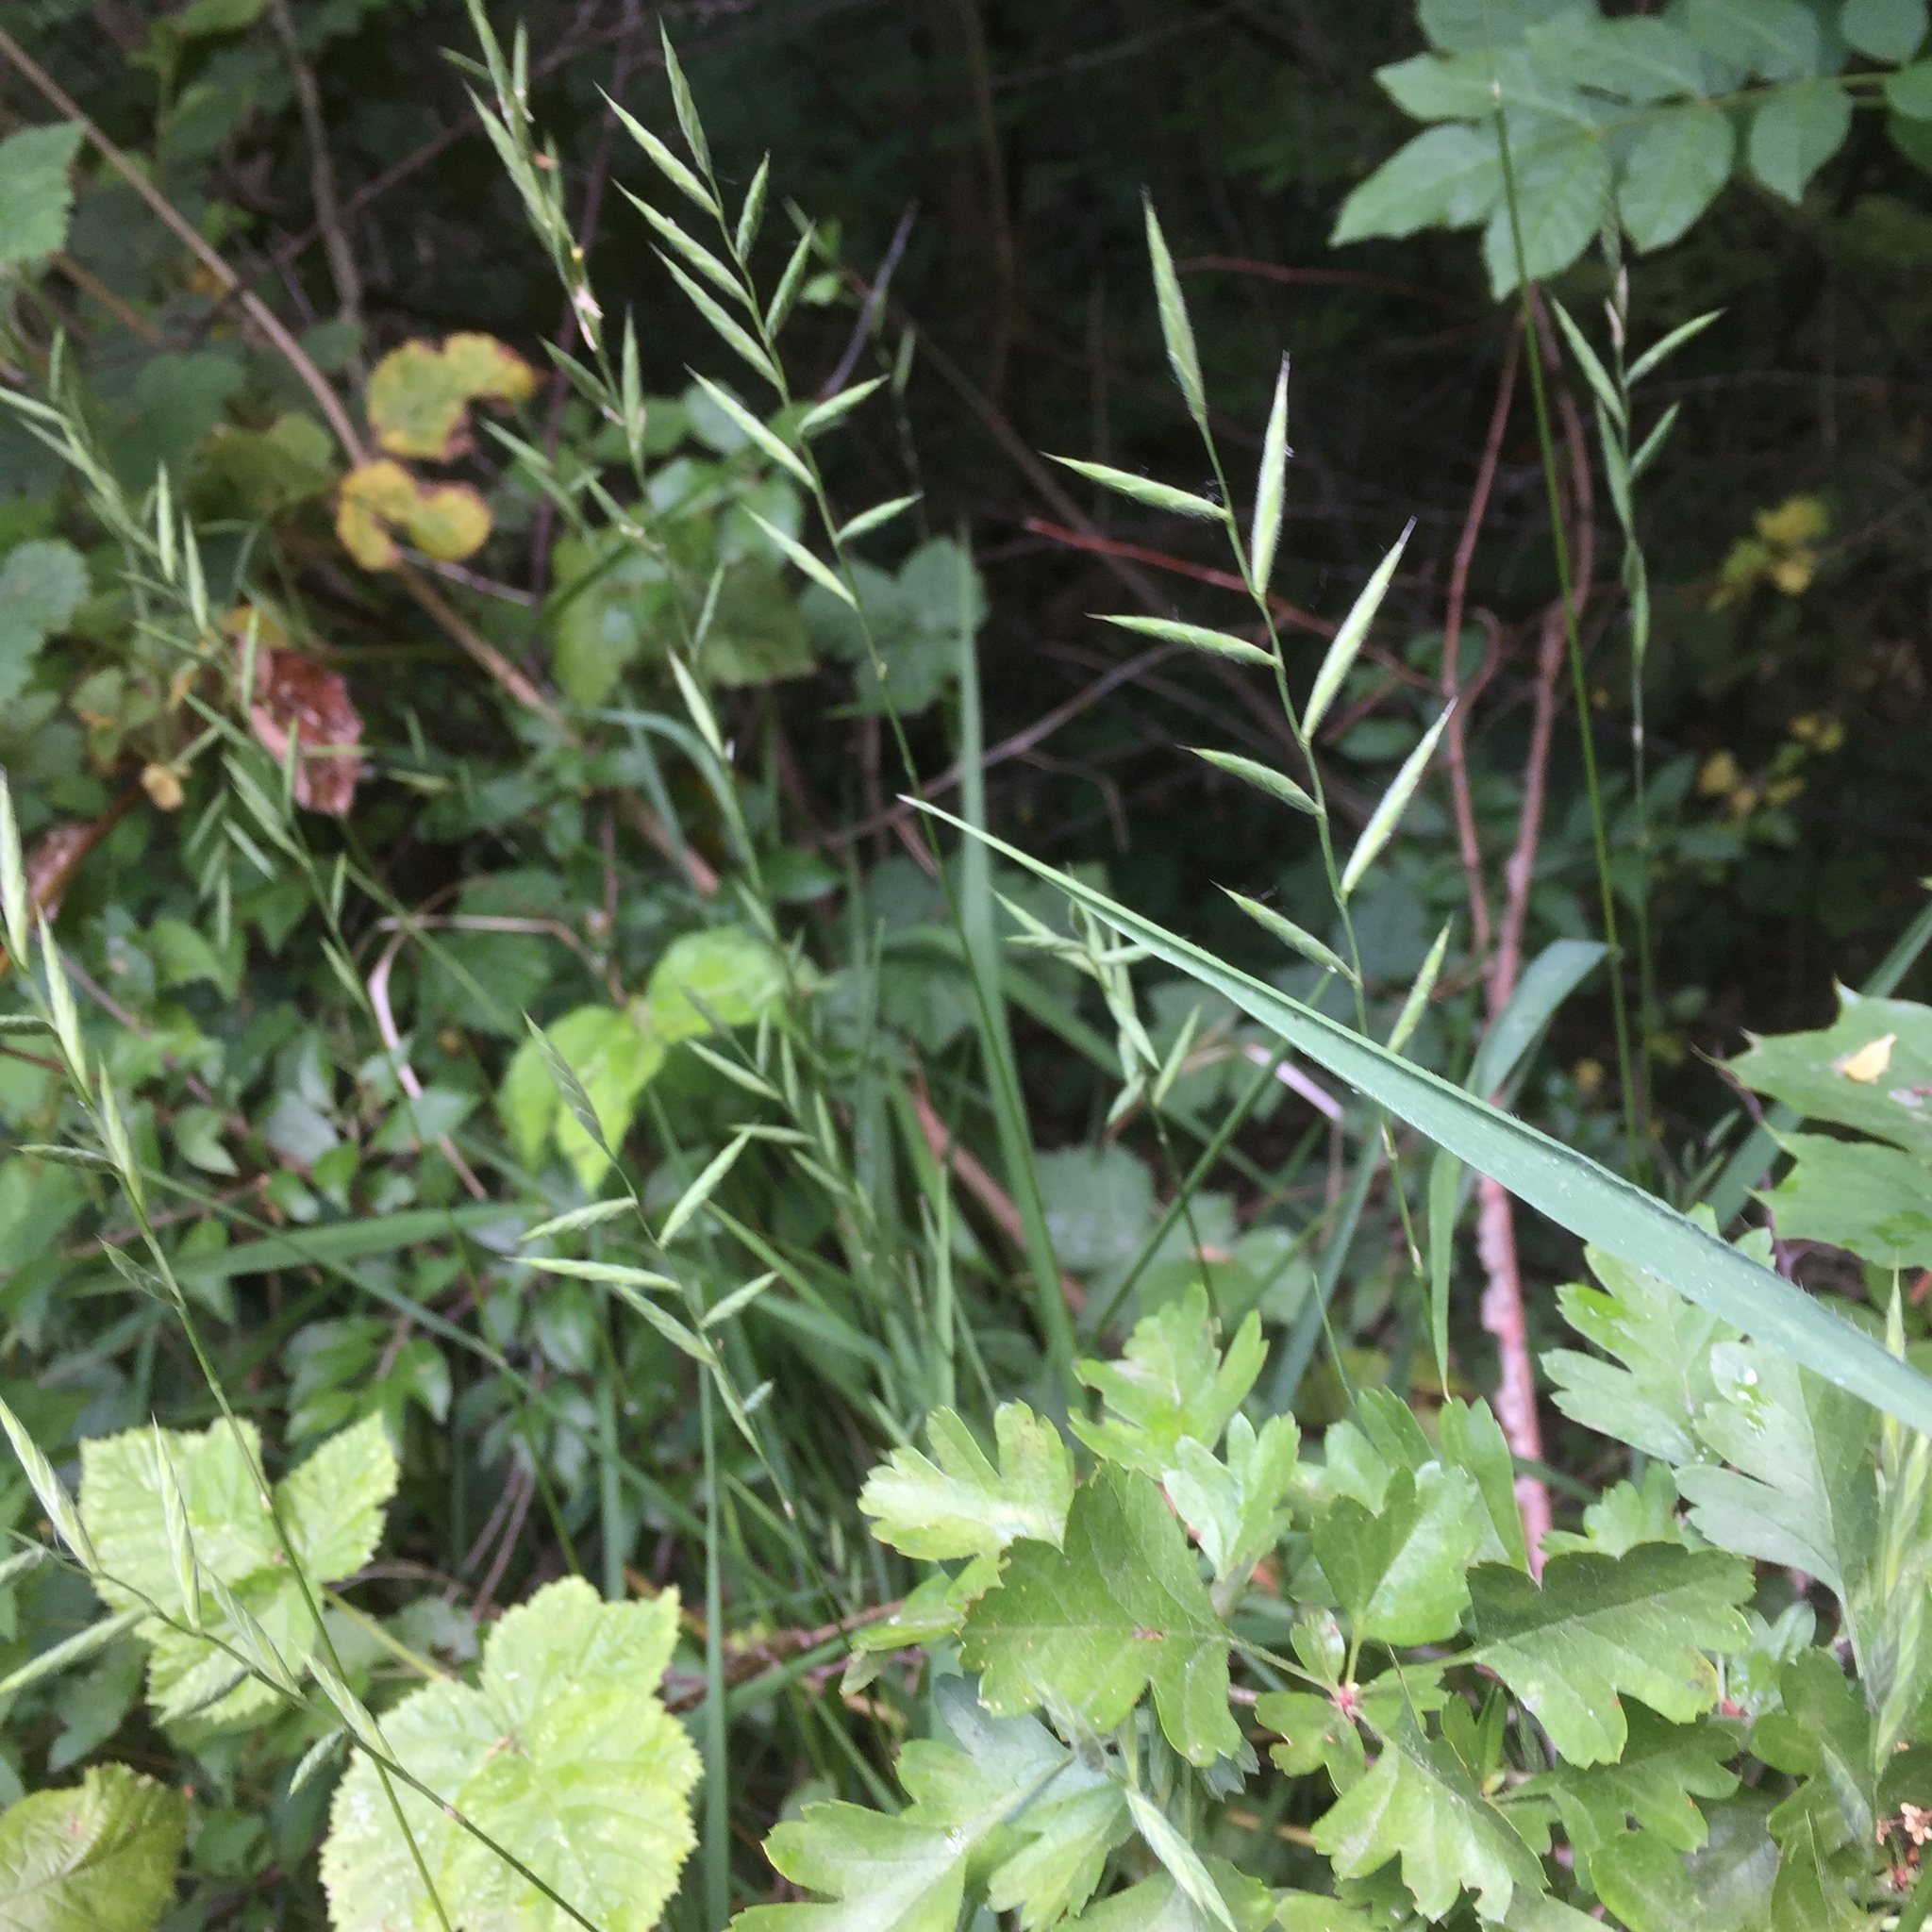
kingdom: Plantae
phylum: Tracheophyta
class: Liliopsida
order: Poales
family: Poaceae
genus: Brachypodium
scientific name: Brachypodium sylvaticum
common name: False-brome
